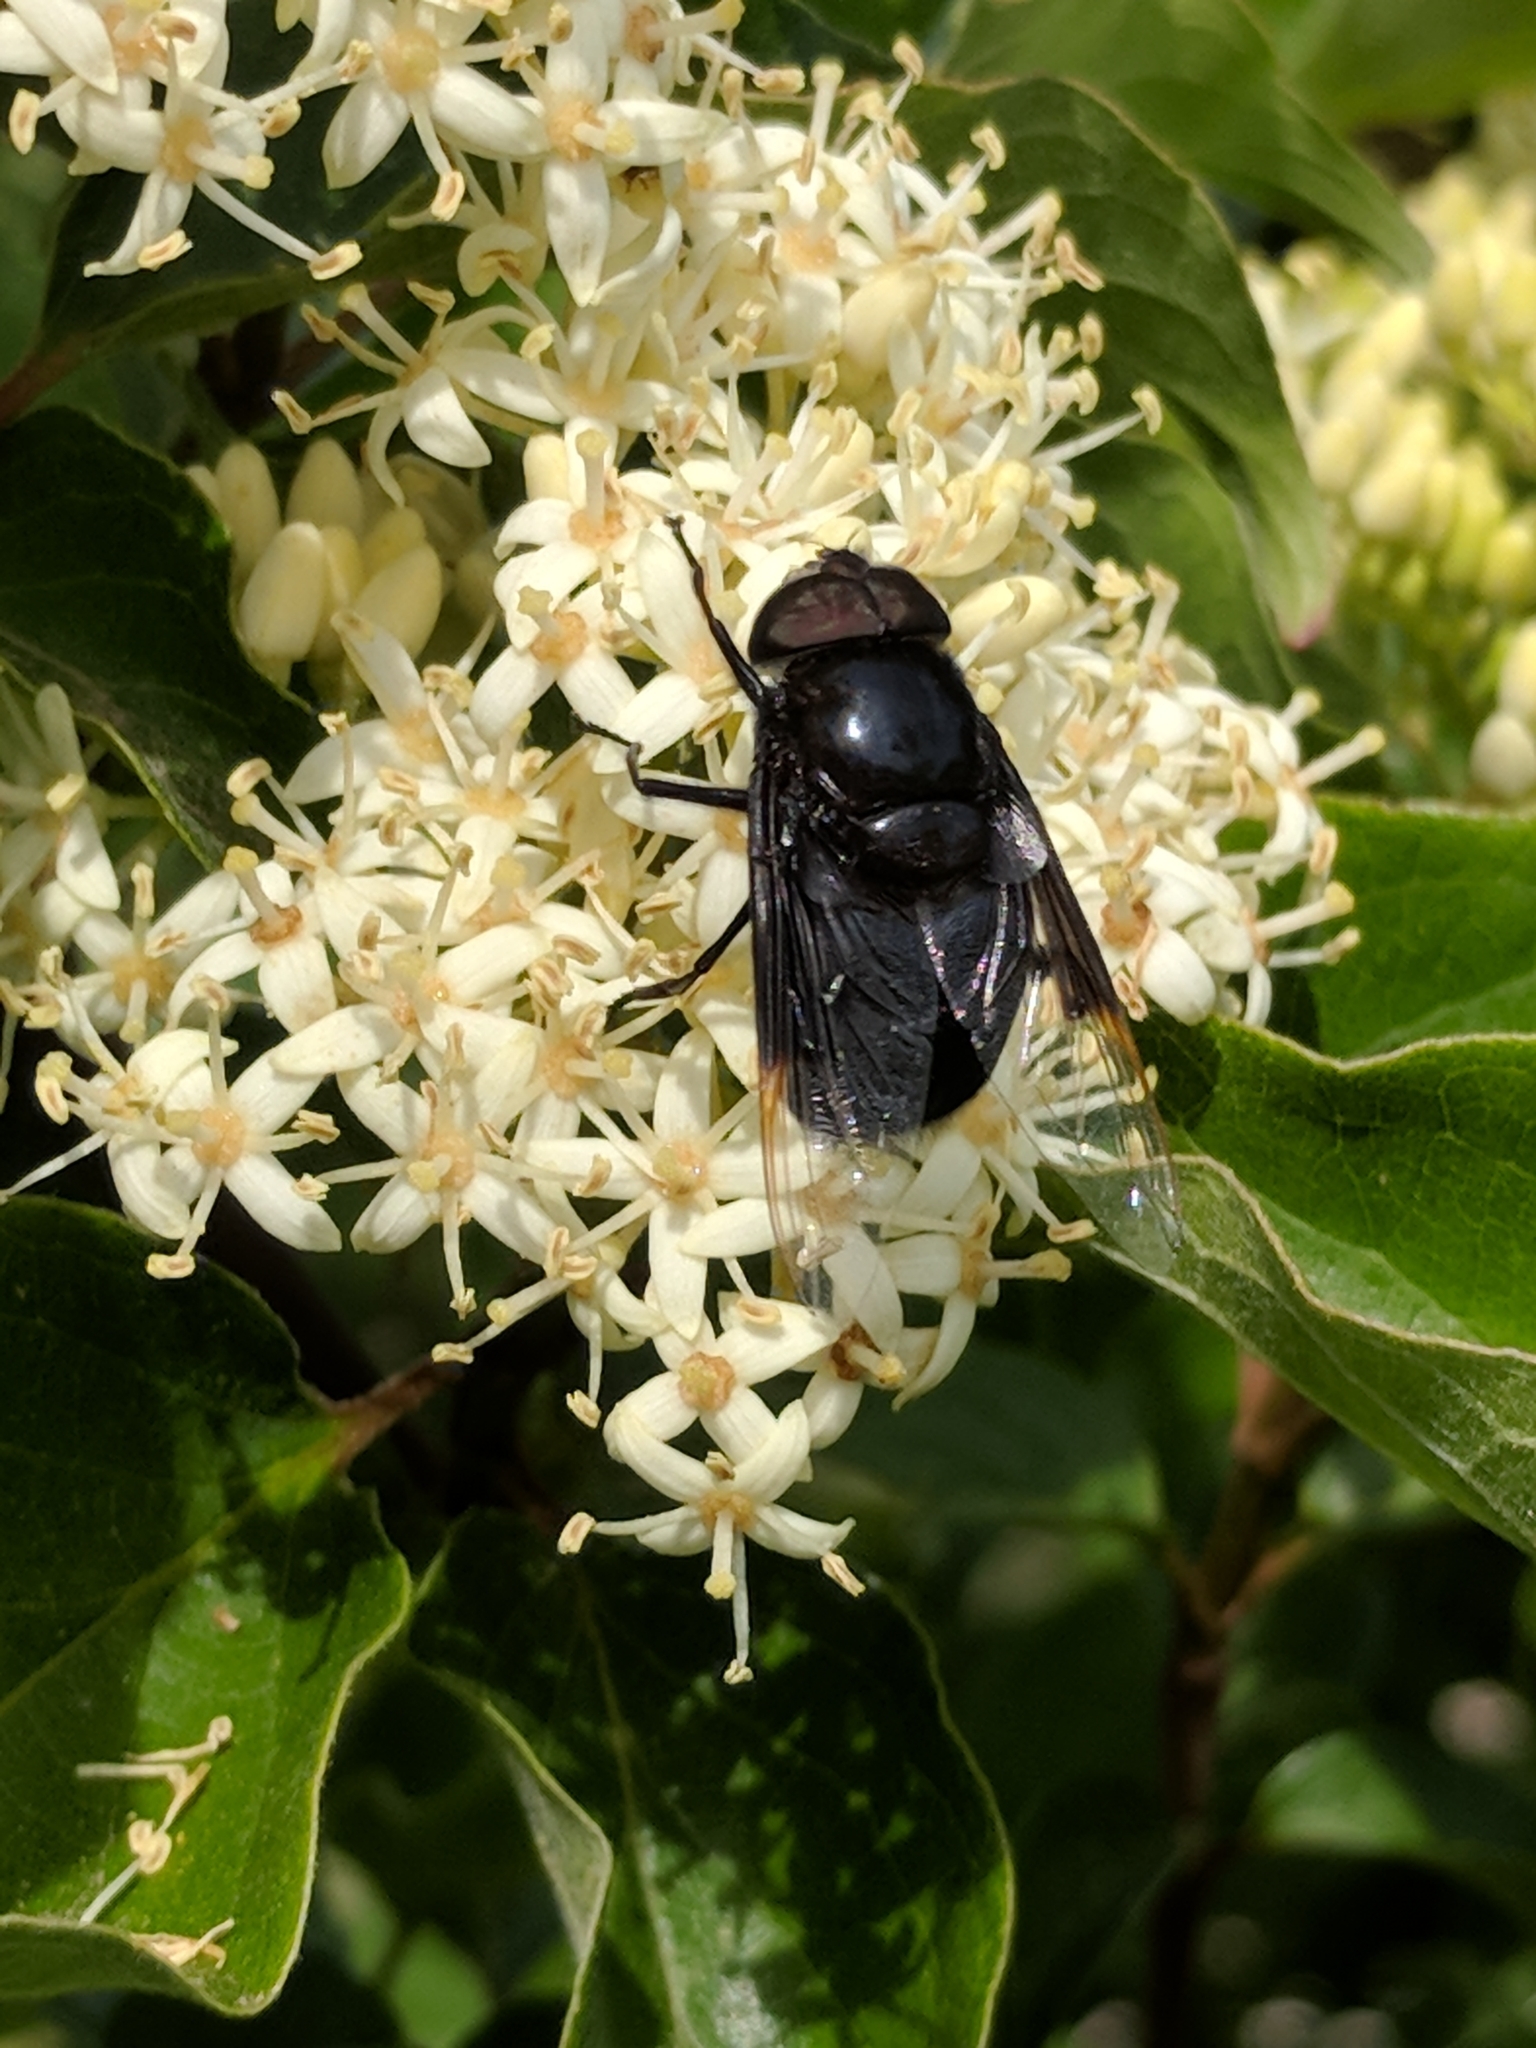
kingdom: Animalia
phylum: Arthropoda
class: Insecta
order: Diptera
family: Syrphidae
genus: Copestylum
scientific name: Copestylum
